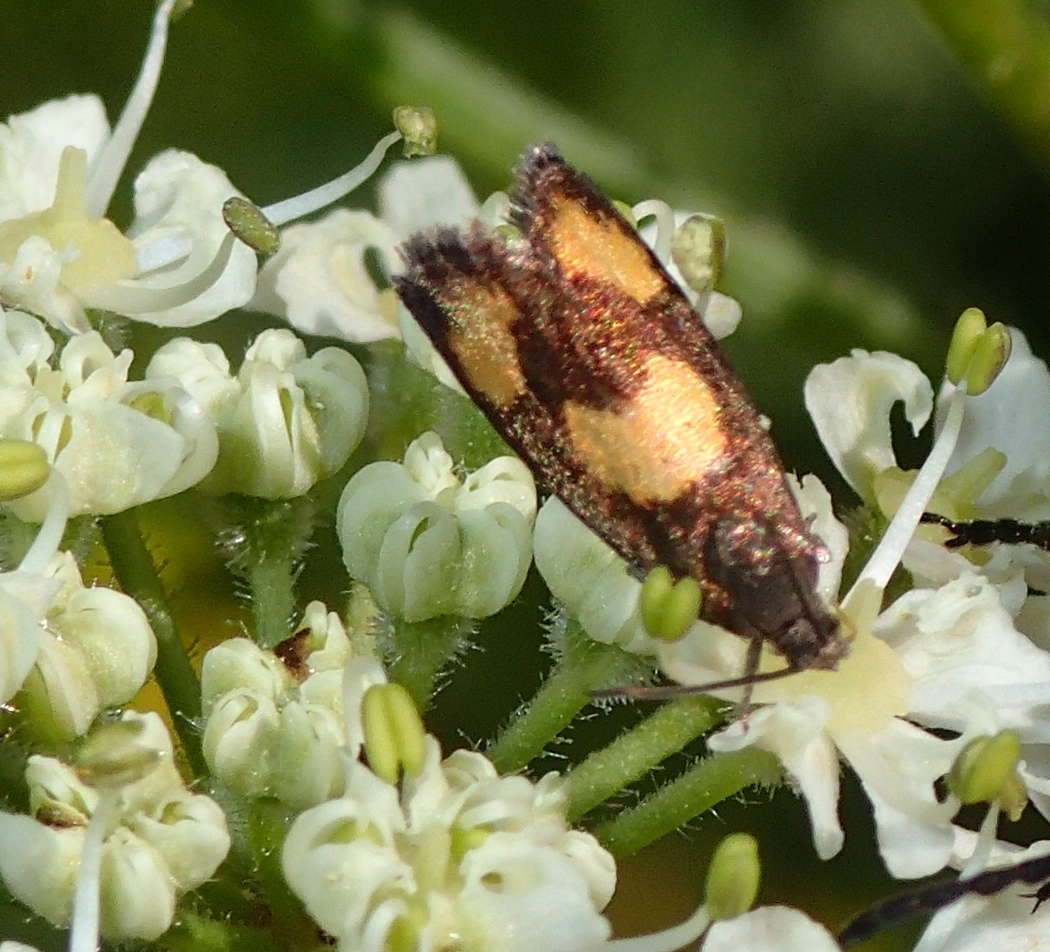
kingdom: Animalia
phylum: Arthropoda
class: Insecta
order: Lepidoptera
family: Tortricidae
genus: Pammene
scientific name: Pammene aurana
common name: Orange-spot piercer
